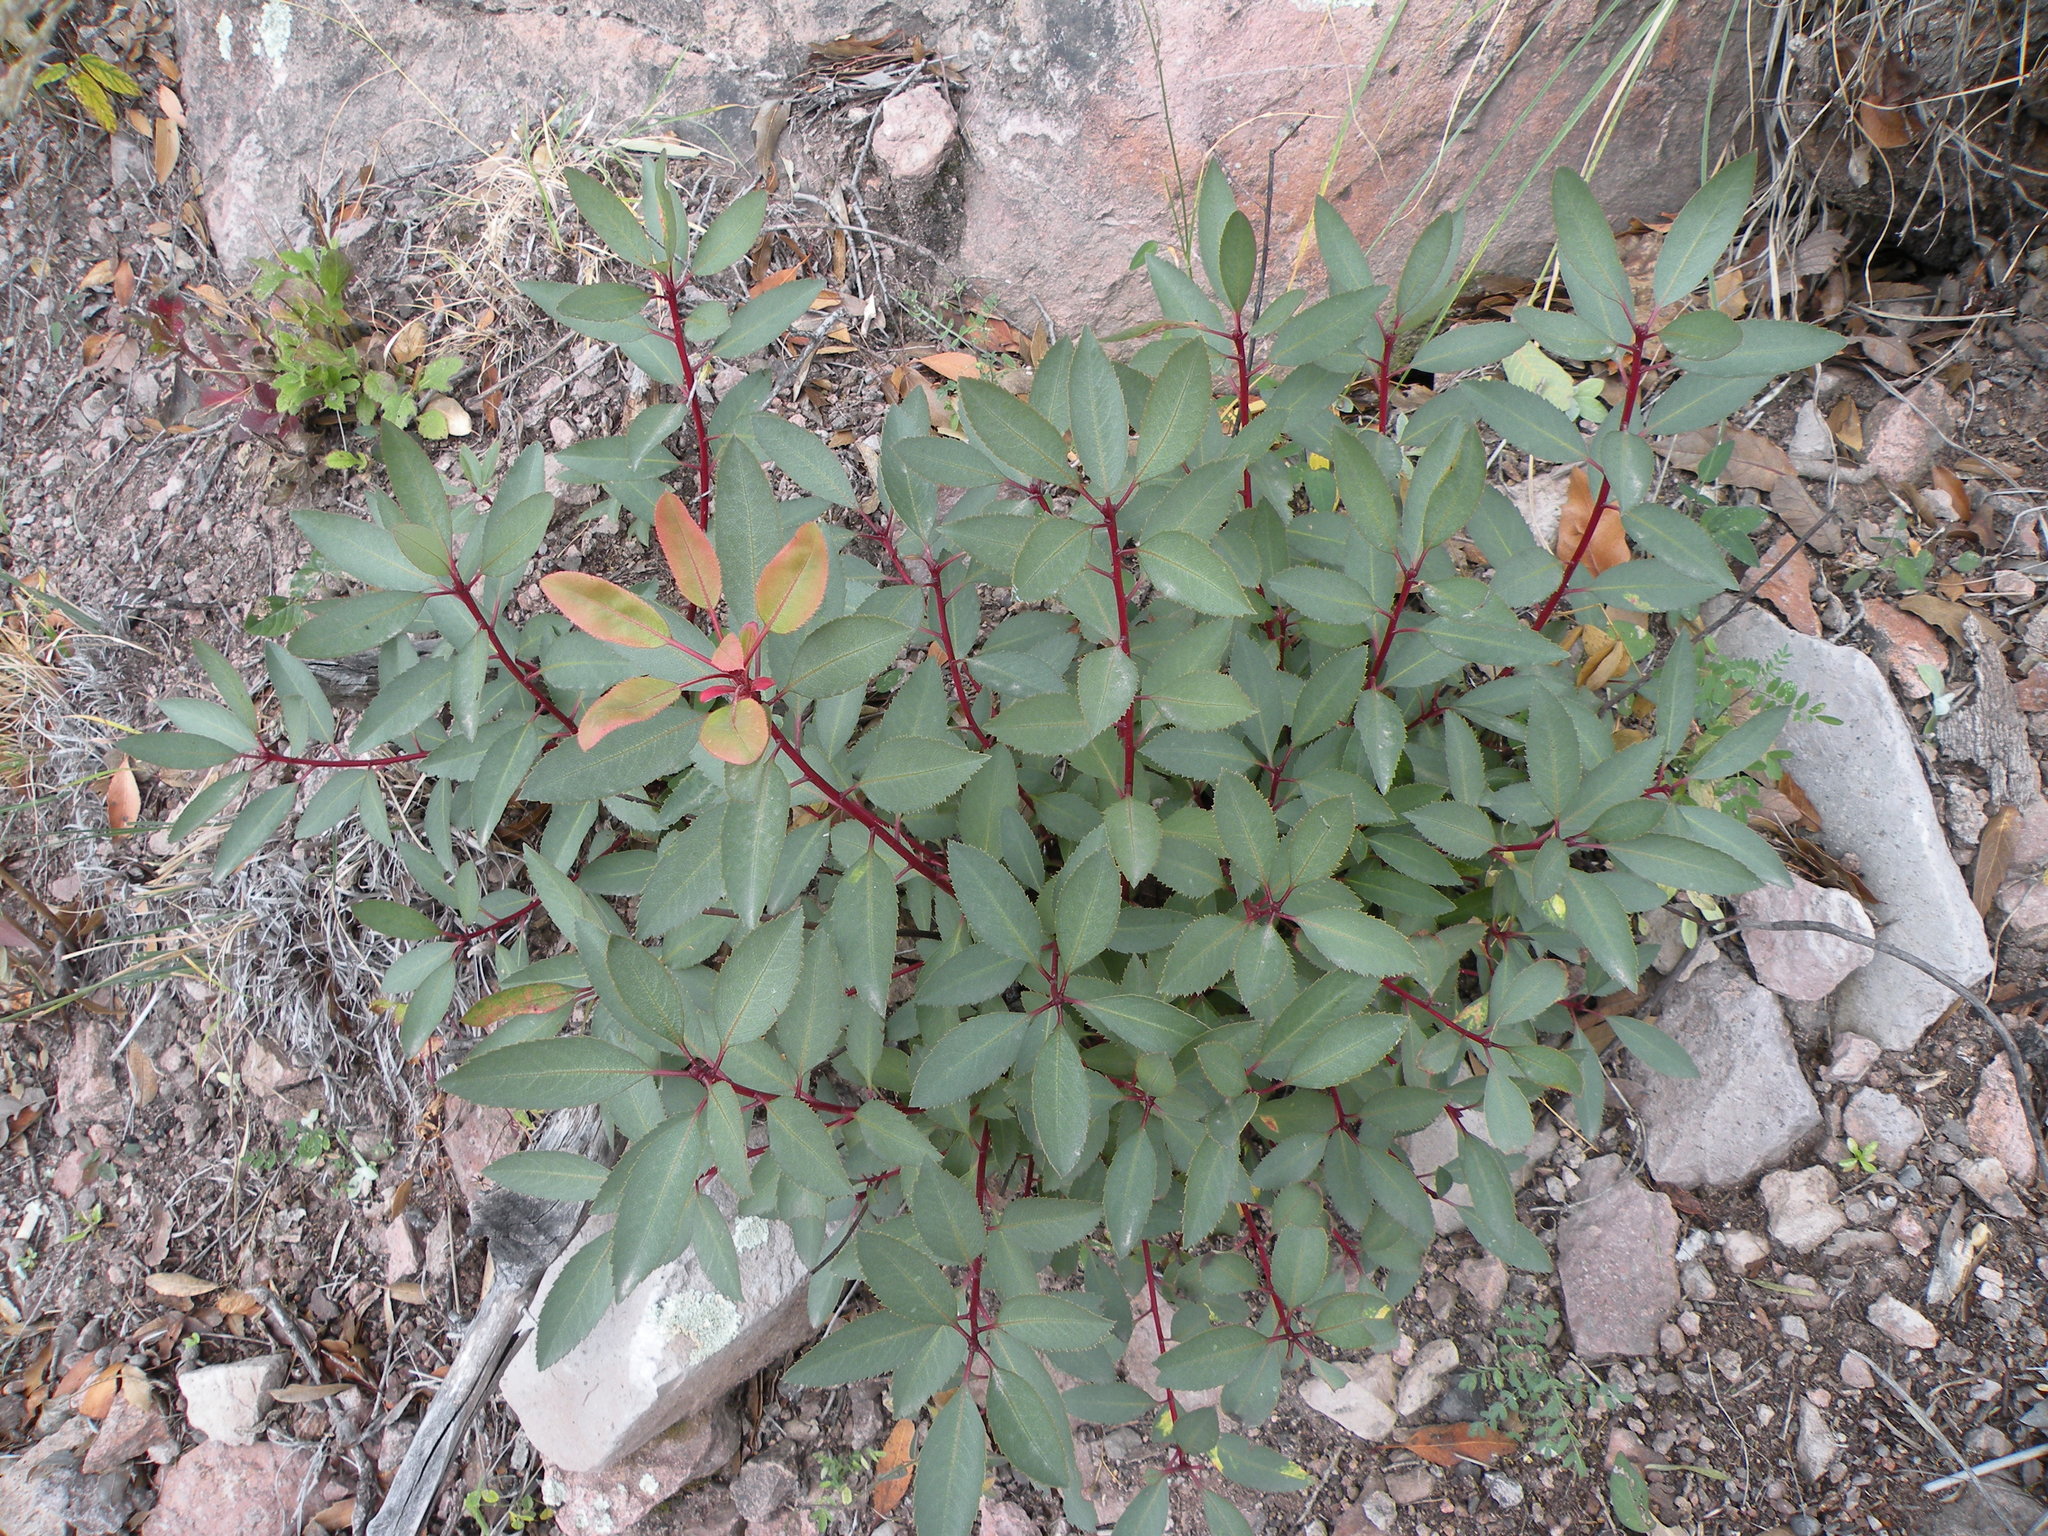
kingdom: Plantae
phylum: Tracheophyta
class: Magnoliopsida
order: Ericales
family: Ericaceae
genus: Arbutus
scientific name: Arbutus arizonica
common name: Arizona madrone
